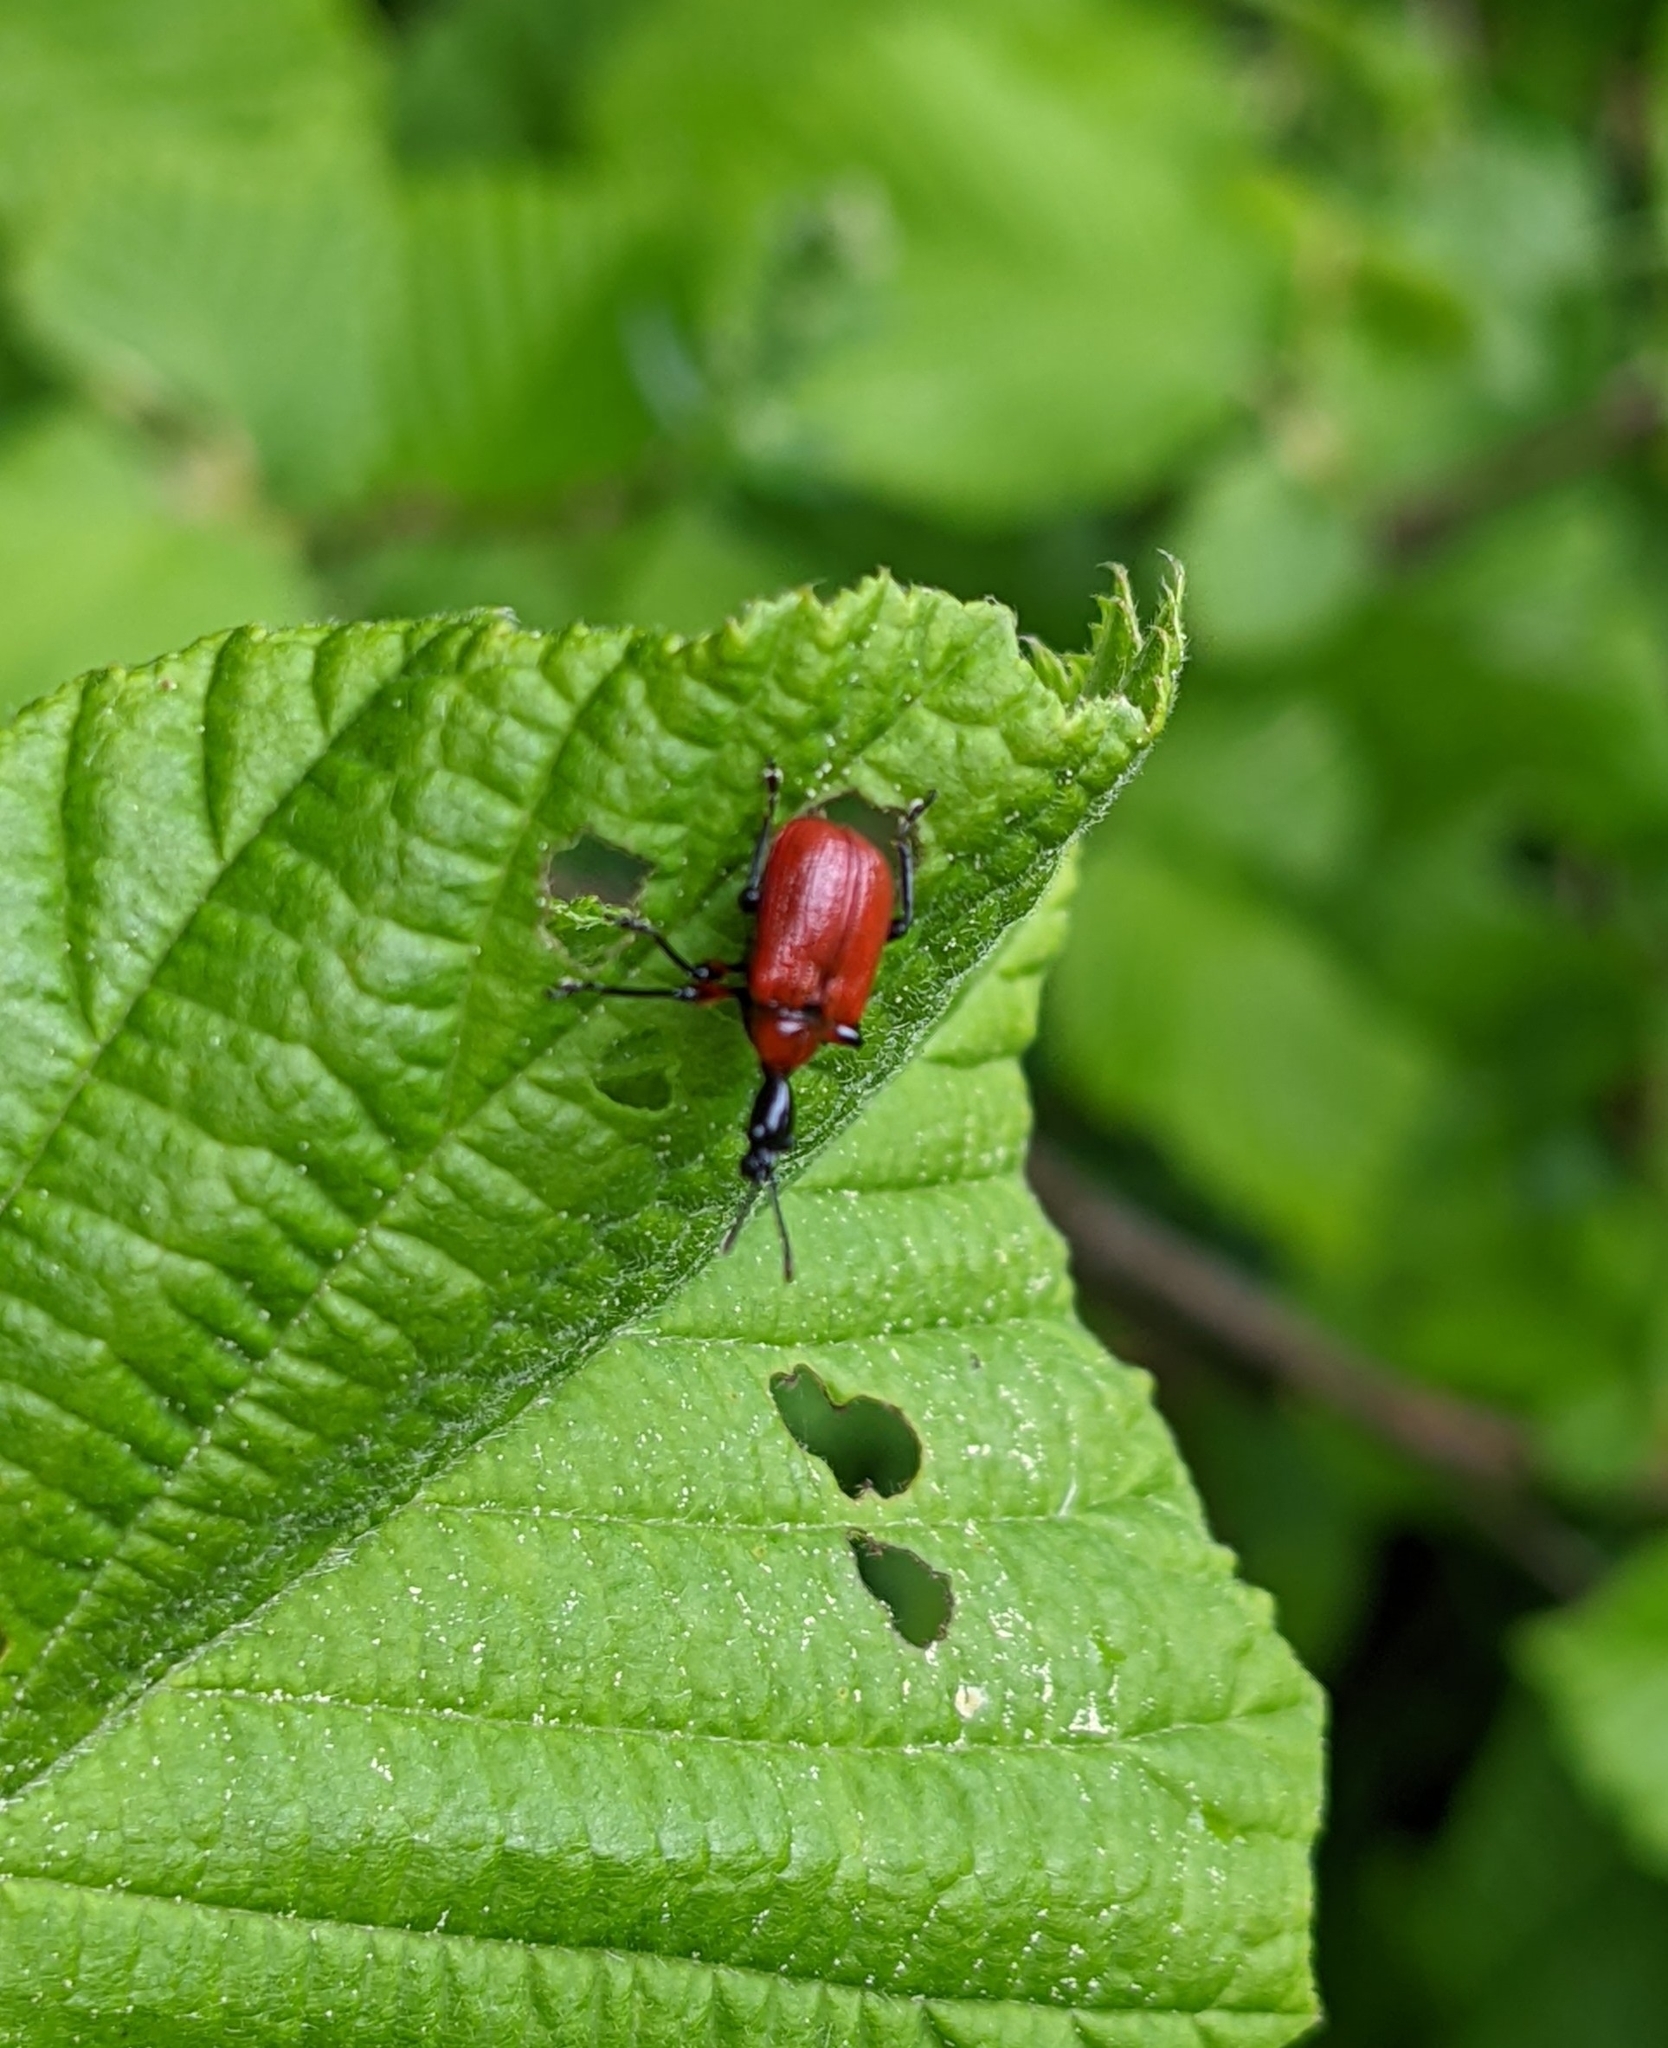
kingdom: Animalia
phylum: Arthropoda
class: Insecta
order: Coleoptera
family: Attelabidae
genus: Apoderus
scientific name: Apoderus coryli
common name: Hazel leaf roller
